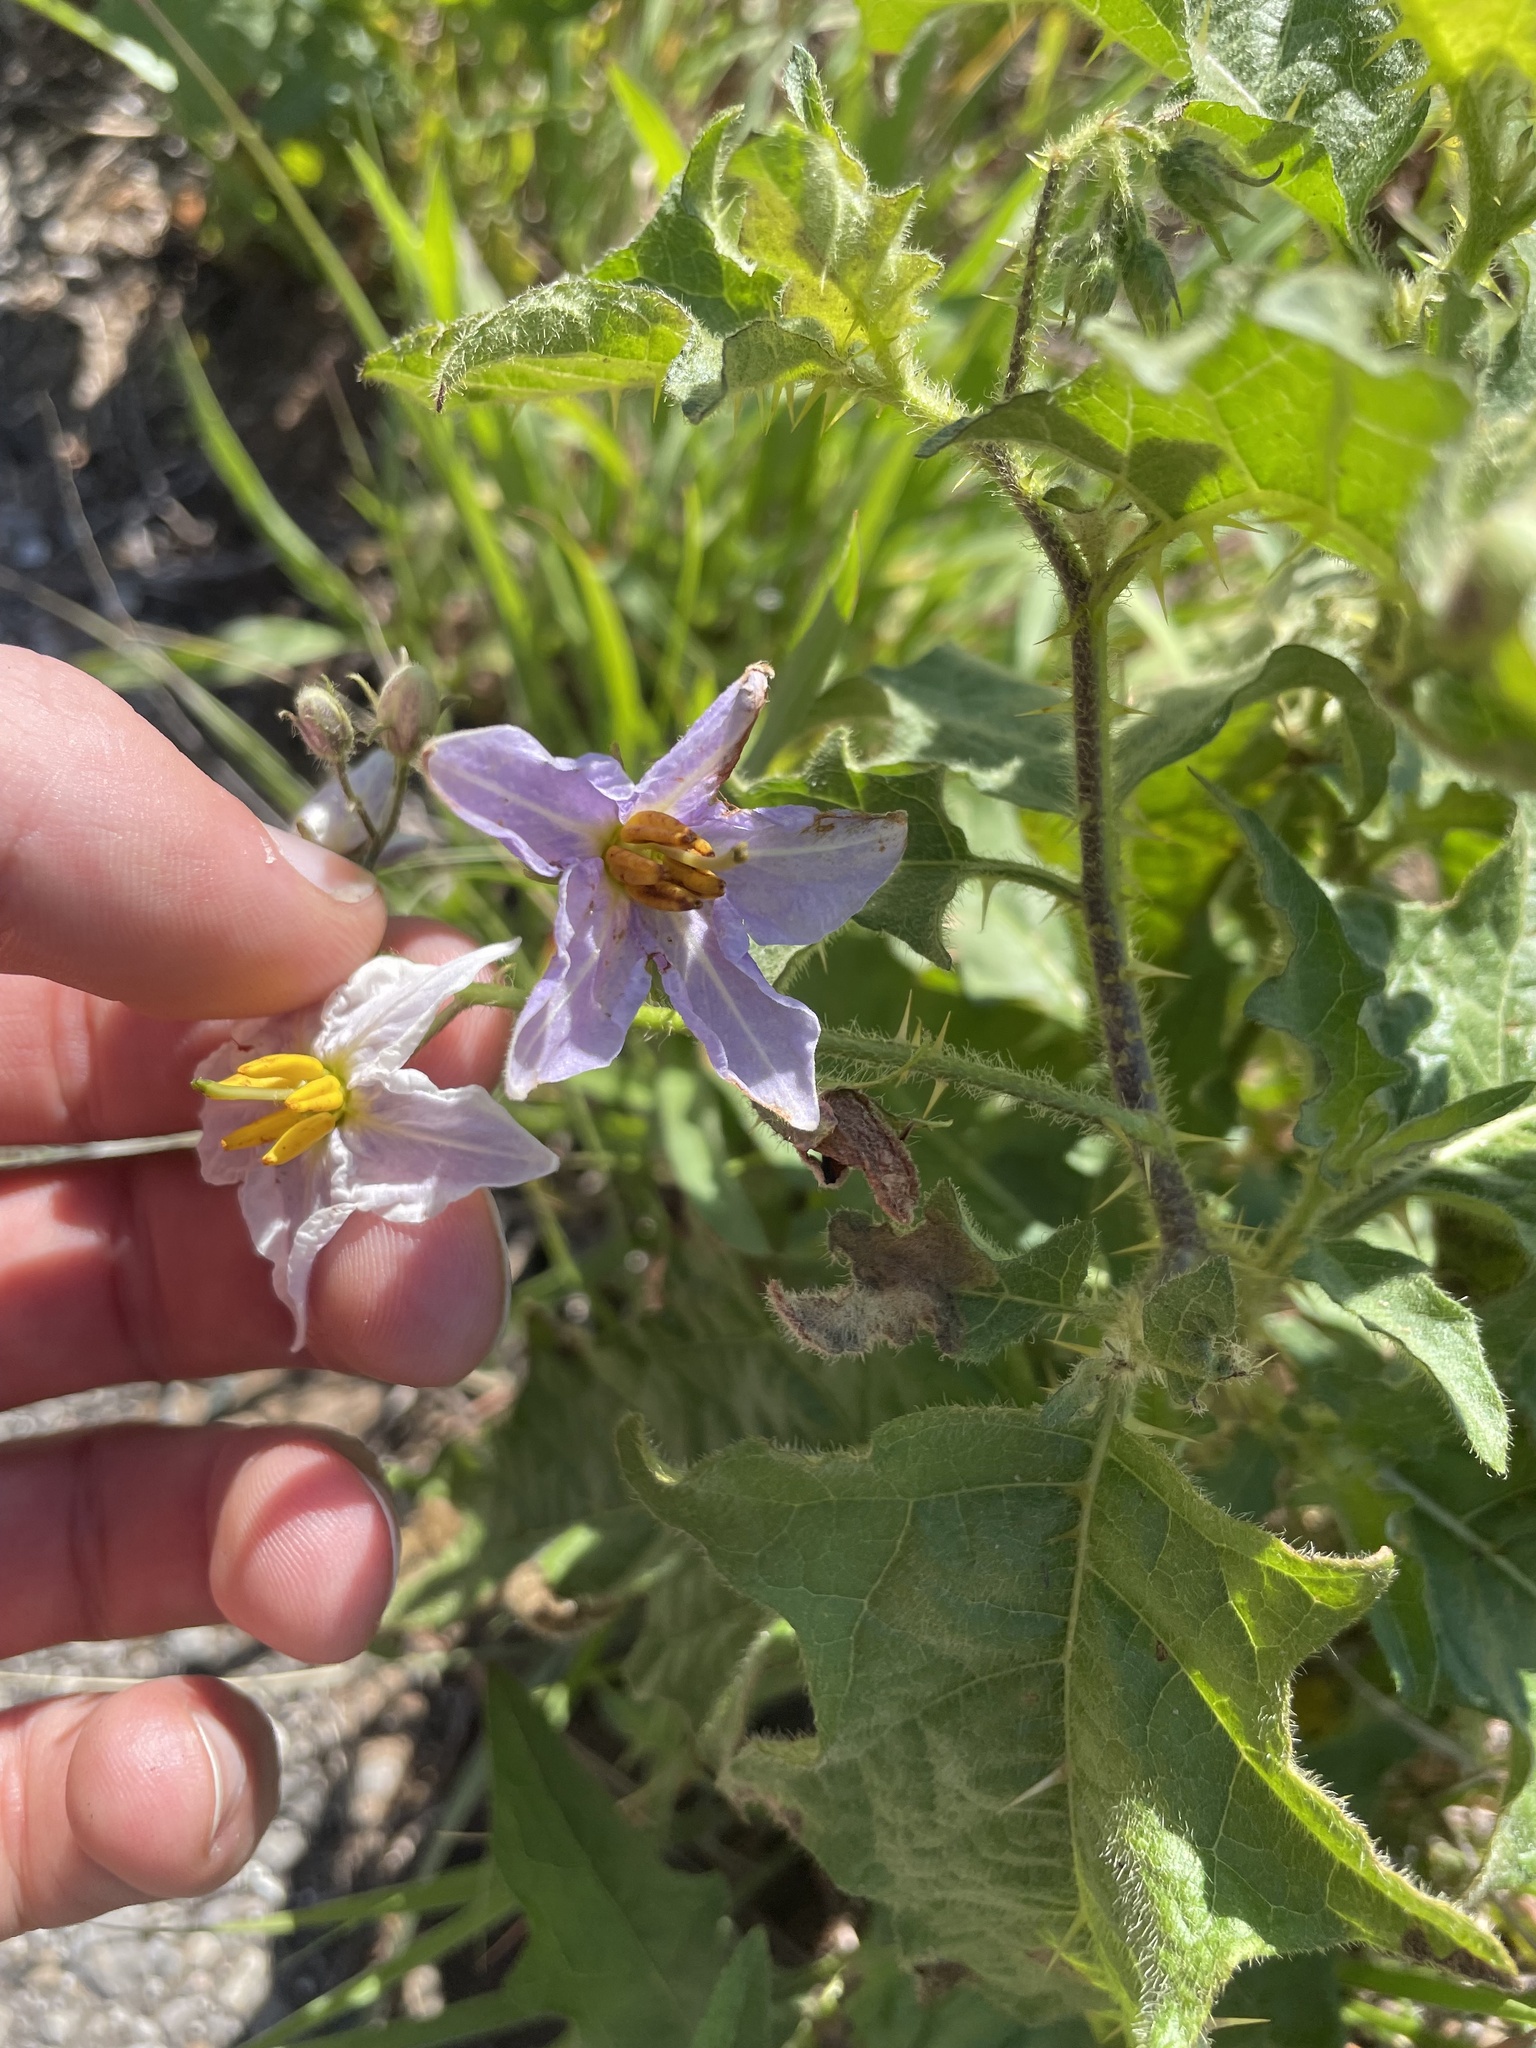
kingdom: Plantae
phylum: Tracheophyta
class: Magnoliopsida
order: Solanales
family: Solanaceae
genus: Solanum
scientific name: Solanum carolinense
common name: Horse-nettle
